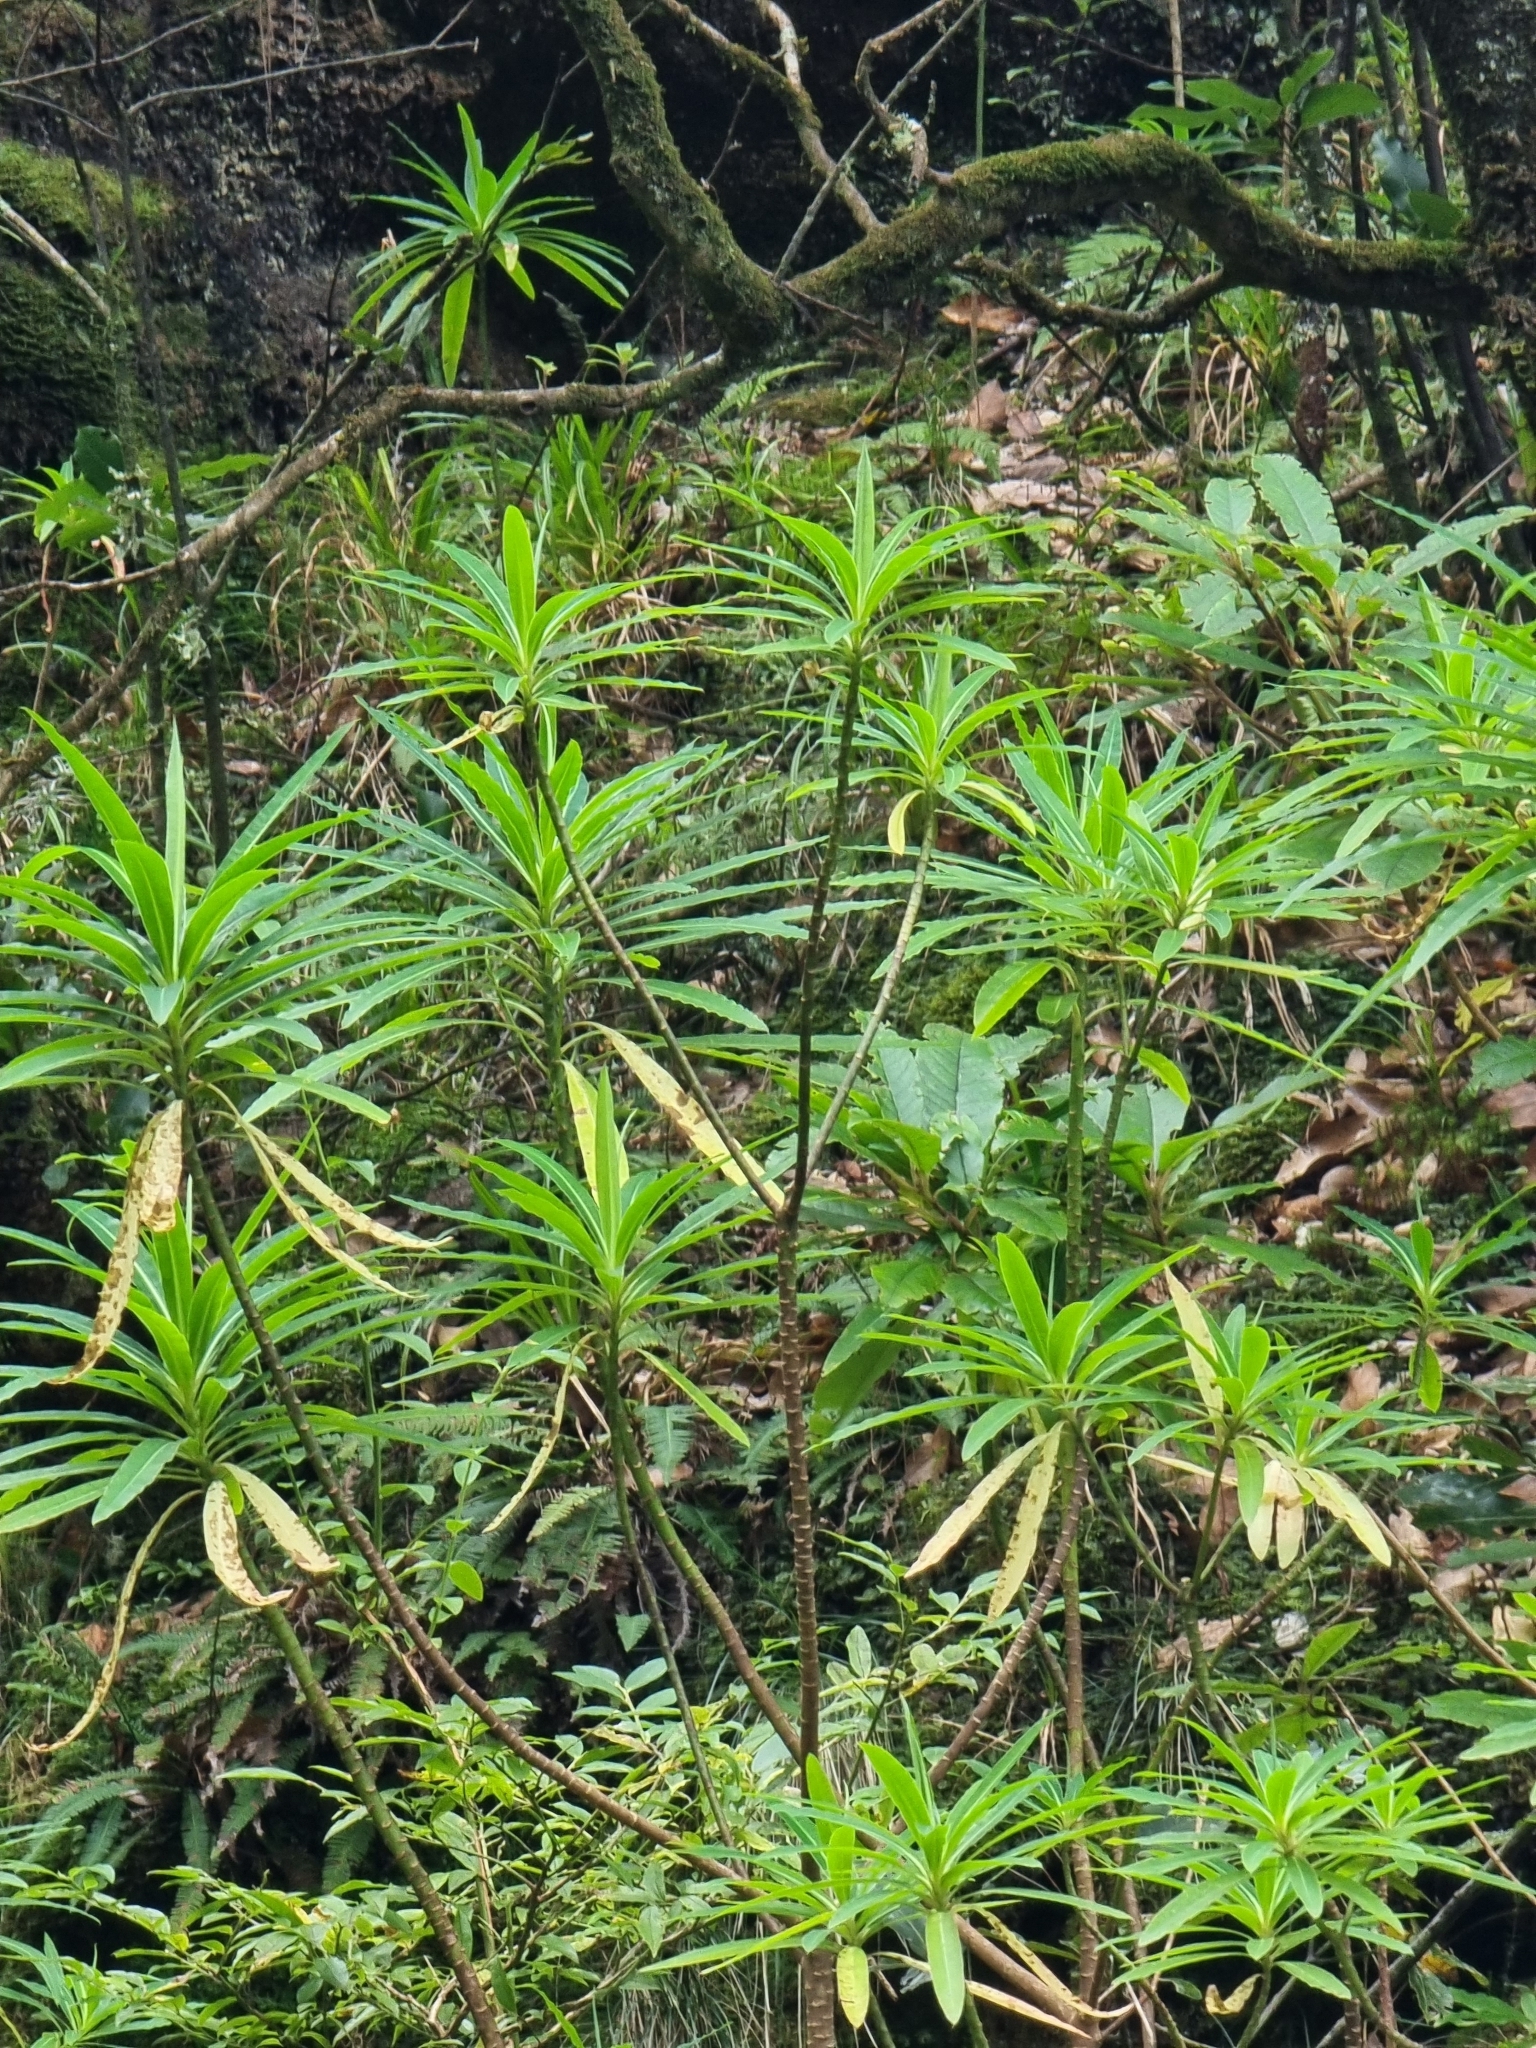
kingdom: Plantae
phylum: Tracheophyta
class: Magnoliopsida
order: Malpighiales
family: Euphorbiaceae
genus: Euphorbia
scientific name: Euphorbia mellifera
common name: Canary spurge
